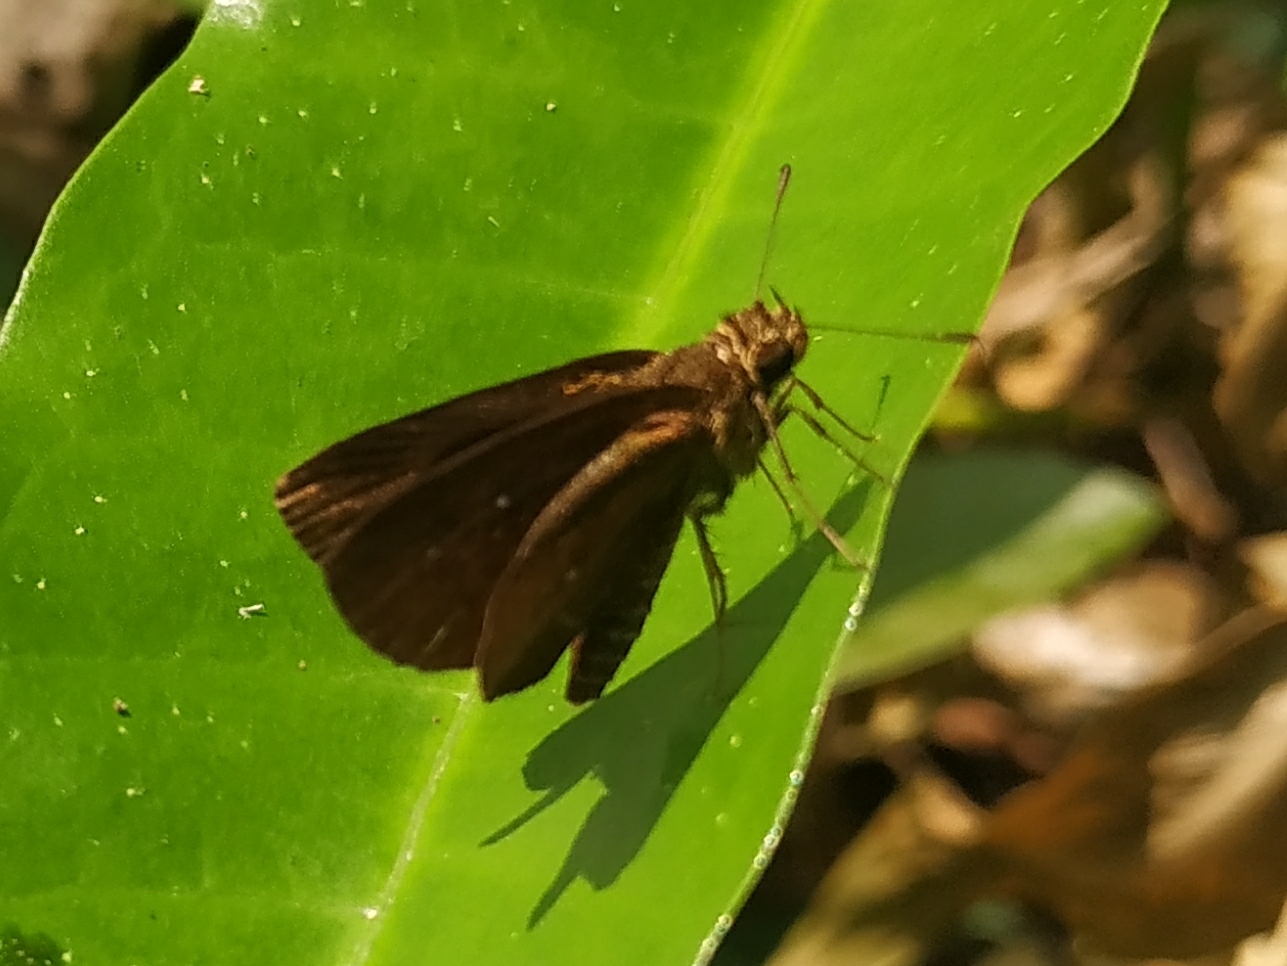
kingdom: Animalia
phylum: Arthropoda
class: Insecta
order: Lepidoptera
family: Hesperiidae
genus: Iambrix
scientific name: Iambrix salsala
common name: Chestnut bob
